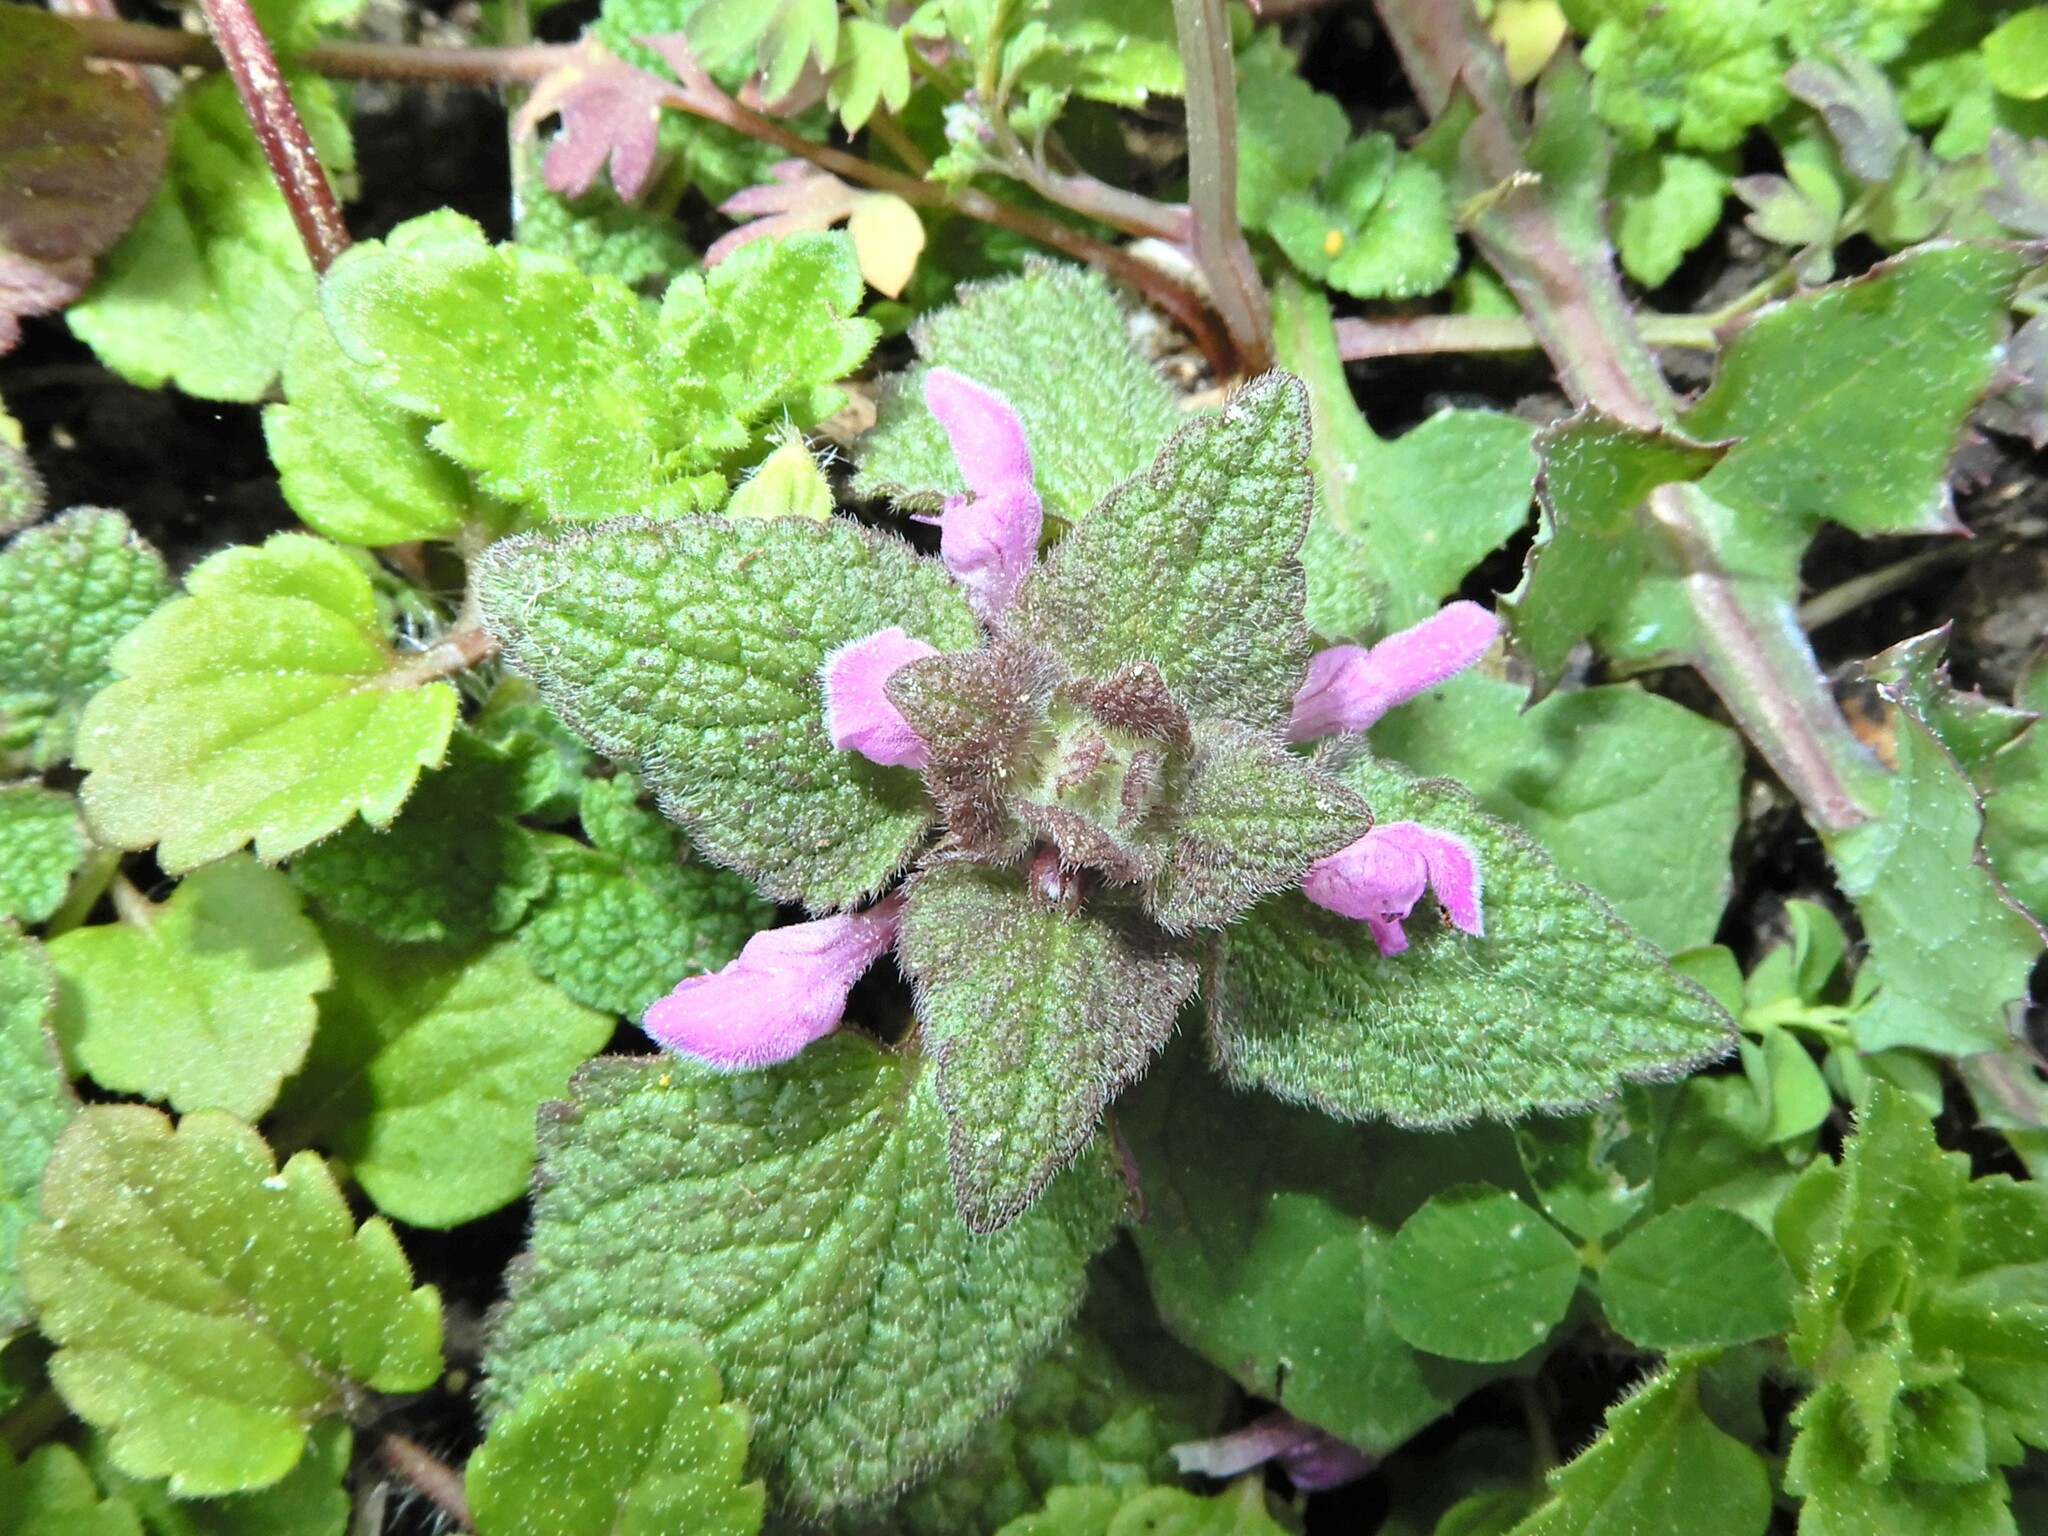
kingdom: Plantae
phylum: Tracheophyta
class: Magnoliopsida
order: Lamiales
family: Lamiaceae
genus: Lamium
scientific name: Lamium purpureum
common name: Red dead-nettle
